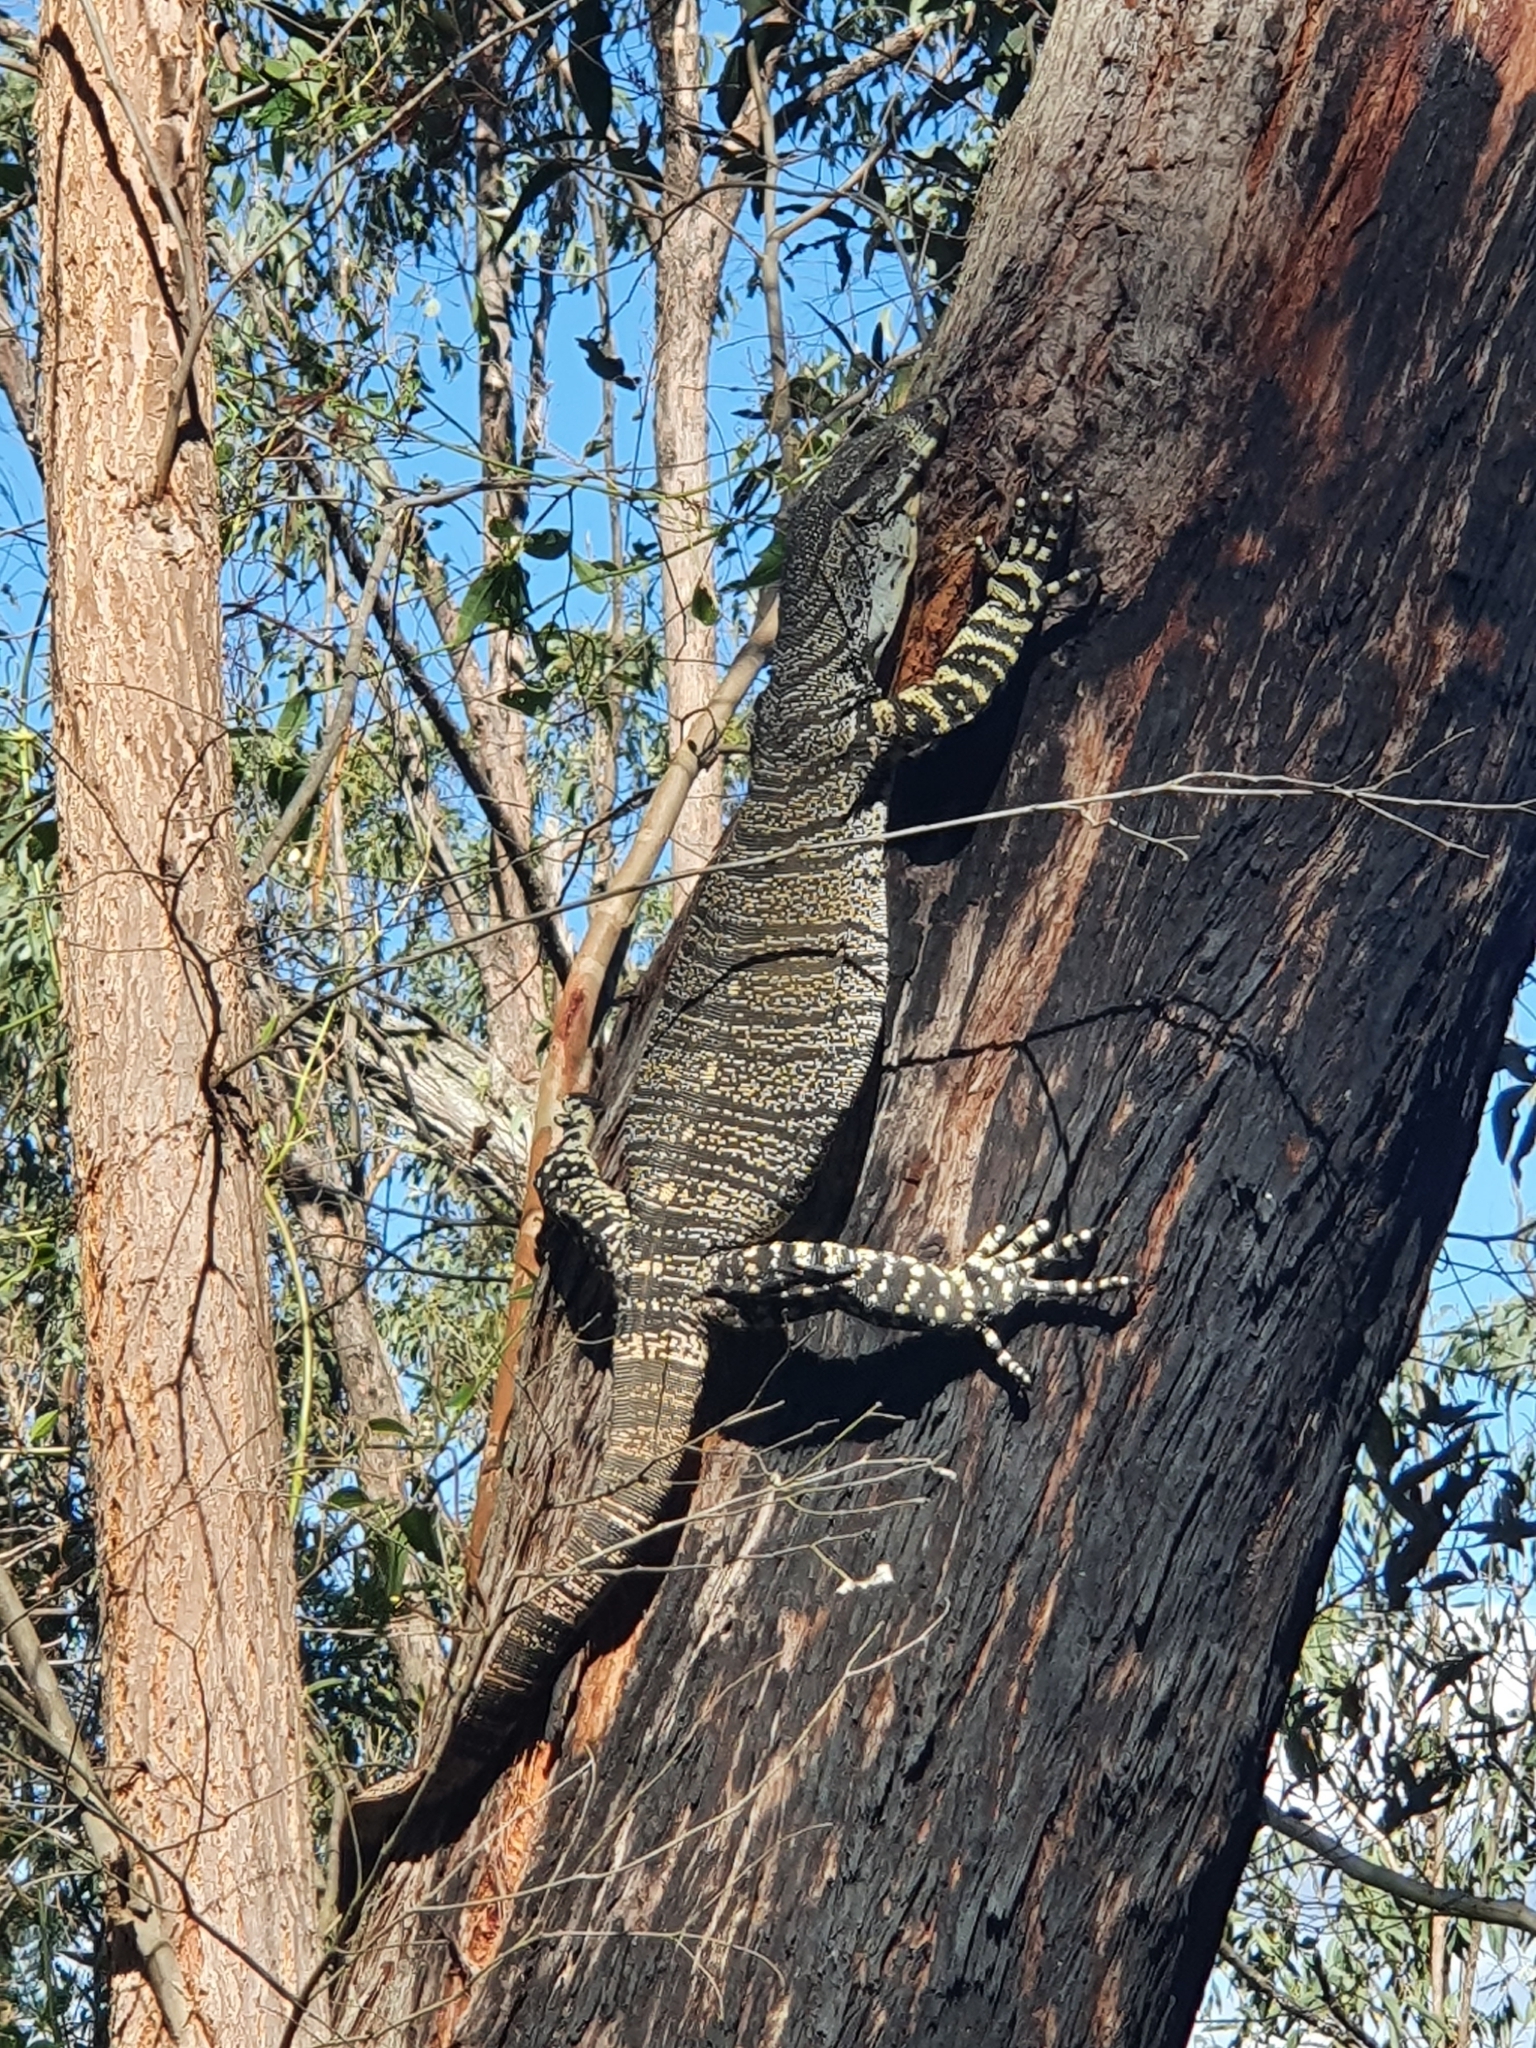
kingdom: Animalia
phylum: Chordata
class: Squamata
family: Varanidae
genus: Varanus
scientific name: Varanus varius
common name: Lace monitor
